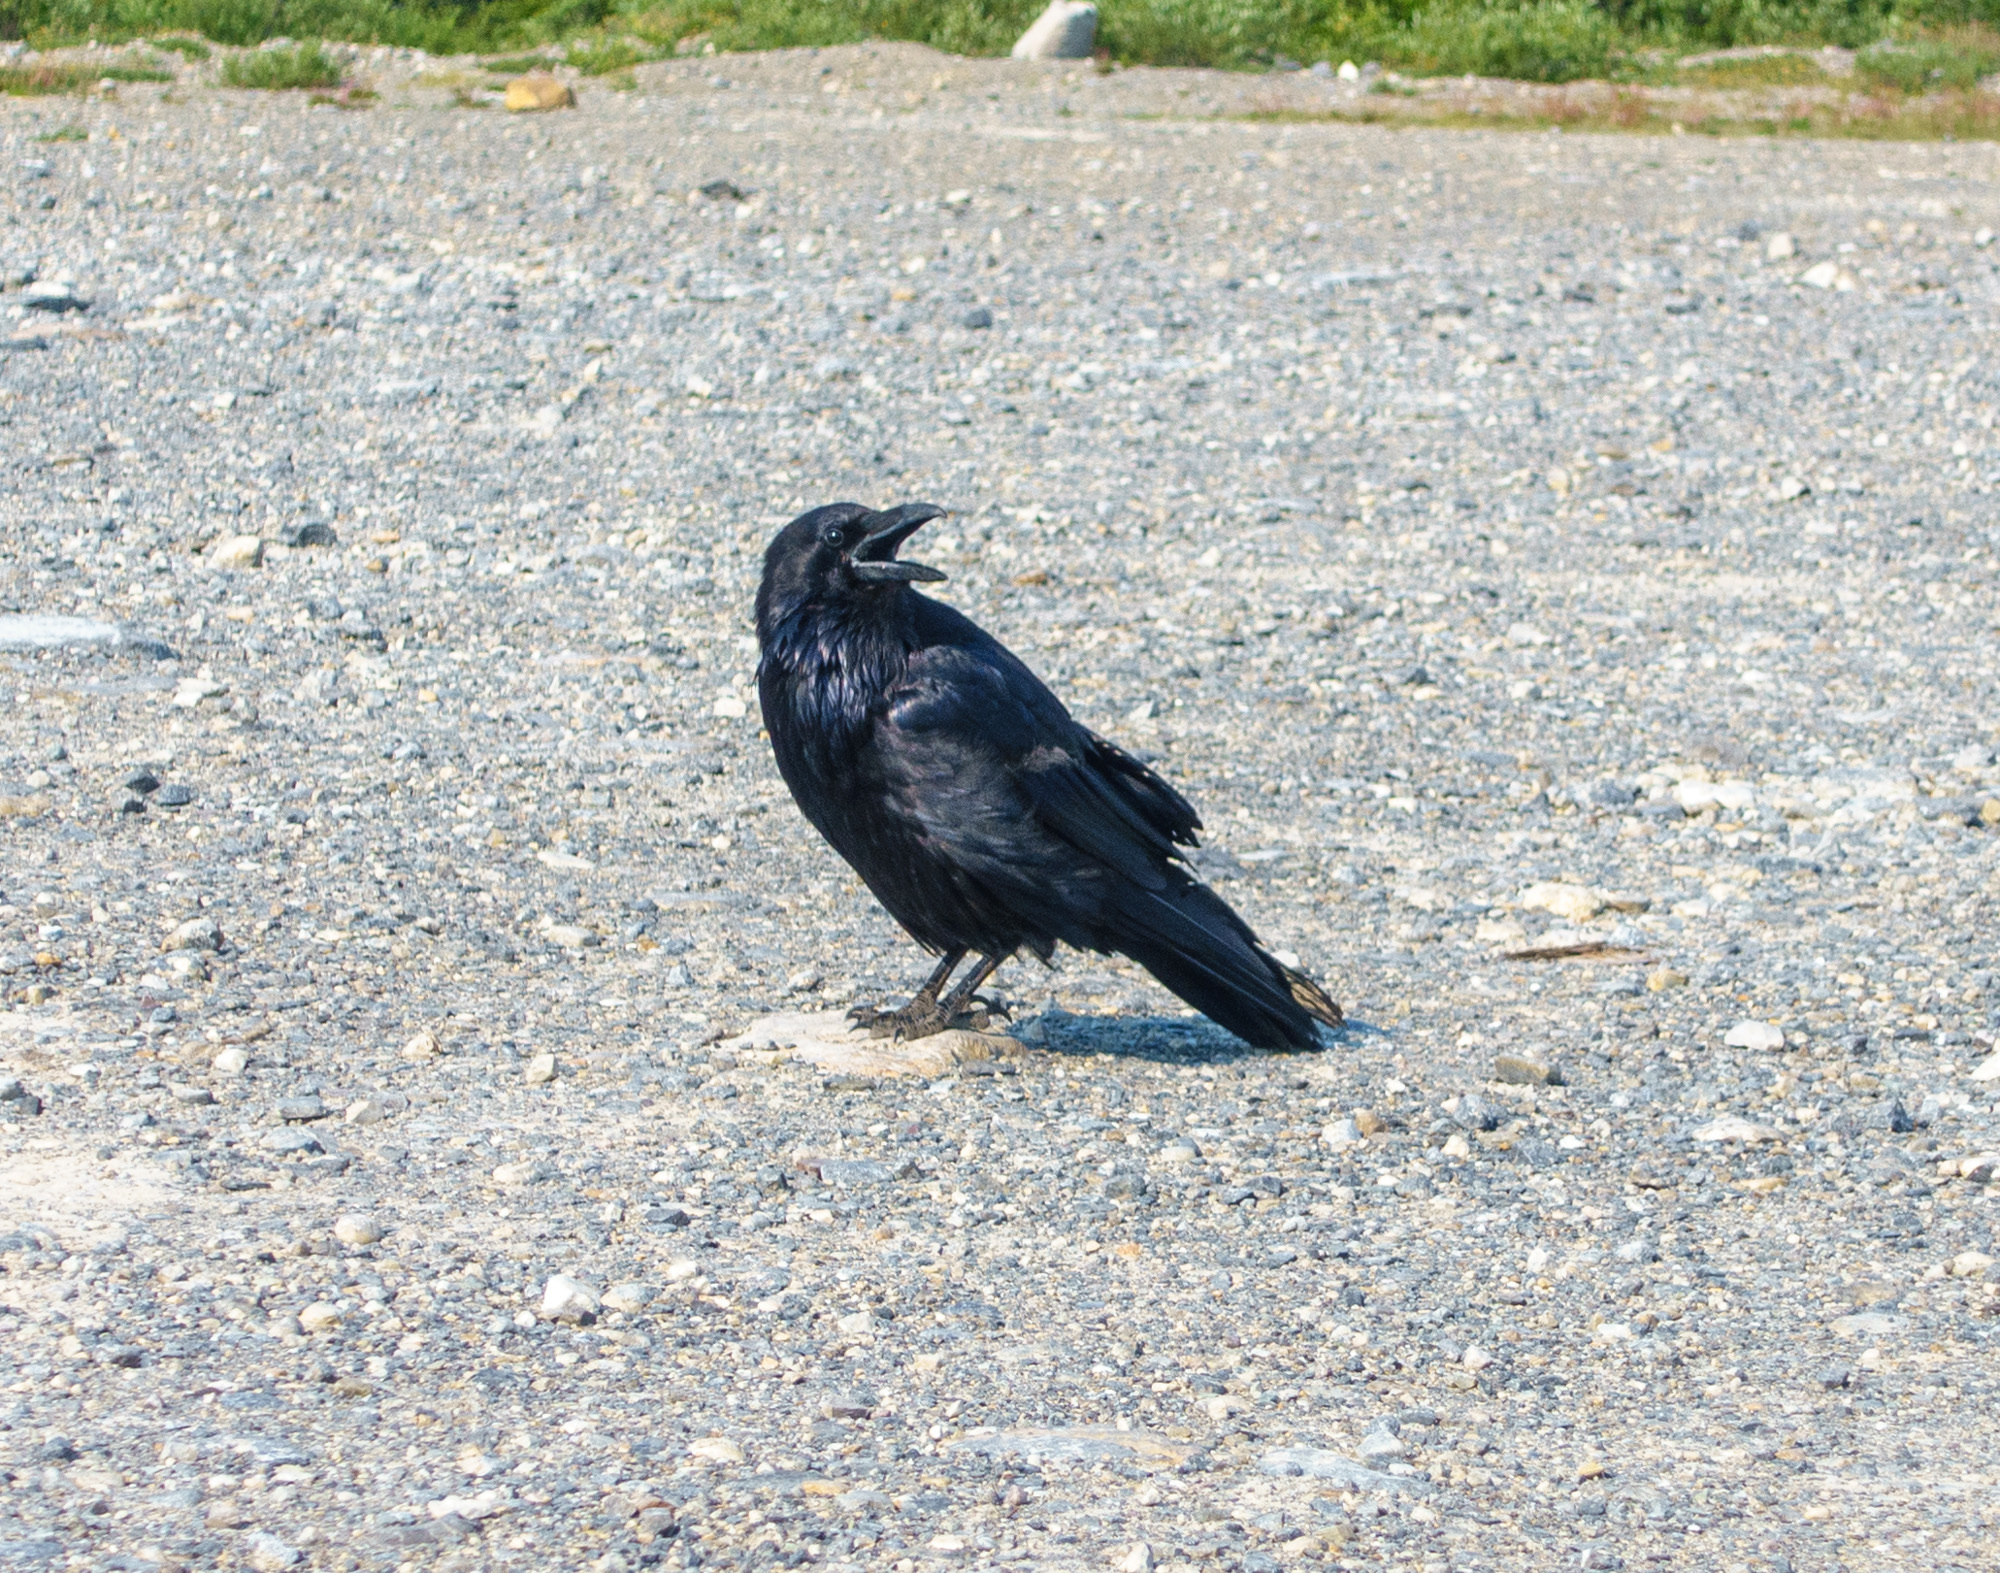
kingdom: Animalia
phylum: Chordata
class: Aves
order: Passeriformes
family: Corvidae
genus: Corvus
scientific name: Corvus corax
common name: Common raven
